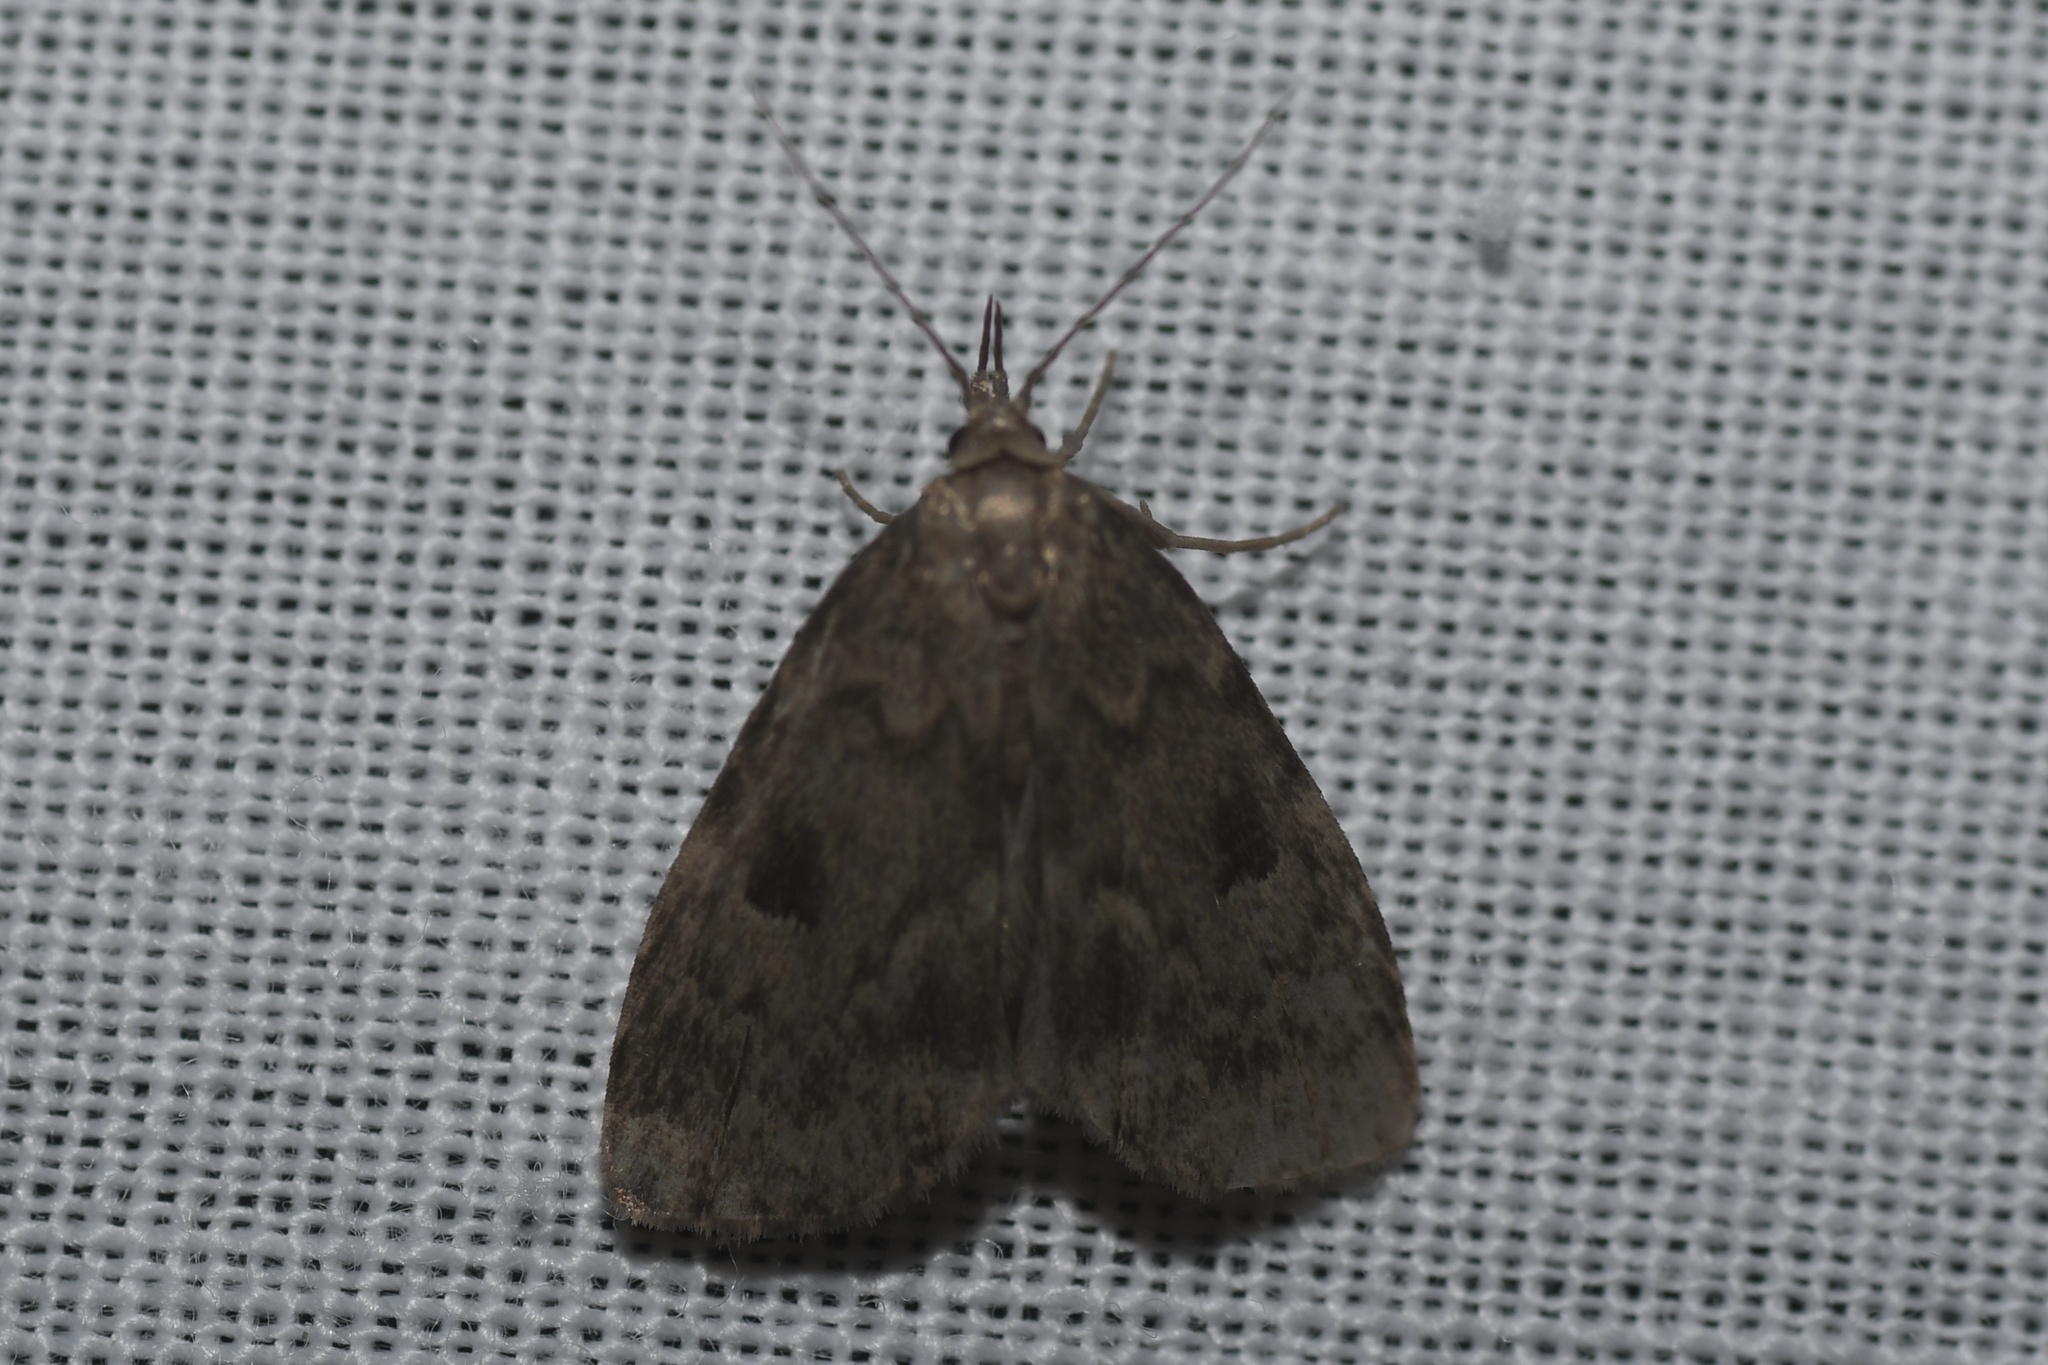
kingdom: Animalia
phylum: Arthropoda
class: Insecta
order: Lepidoptera
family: Erebidae
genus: Paradelta
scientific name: Paradelta Parahypenodes quadralis
